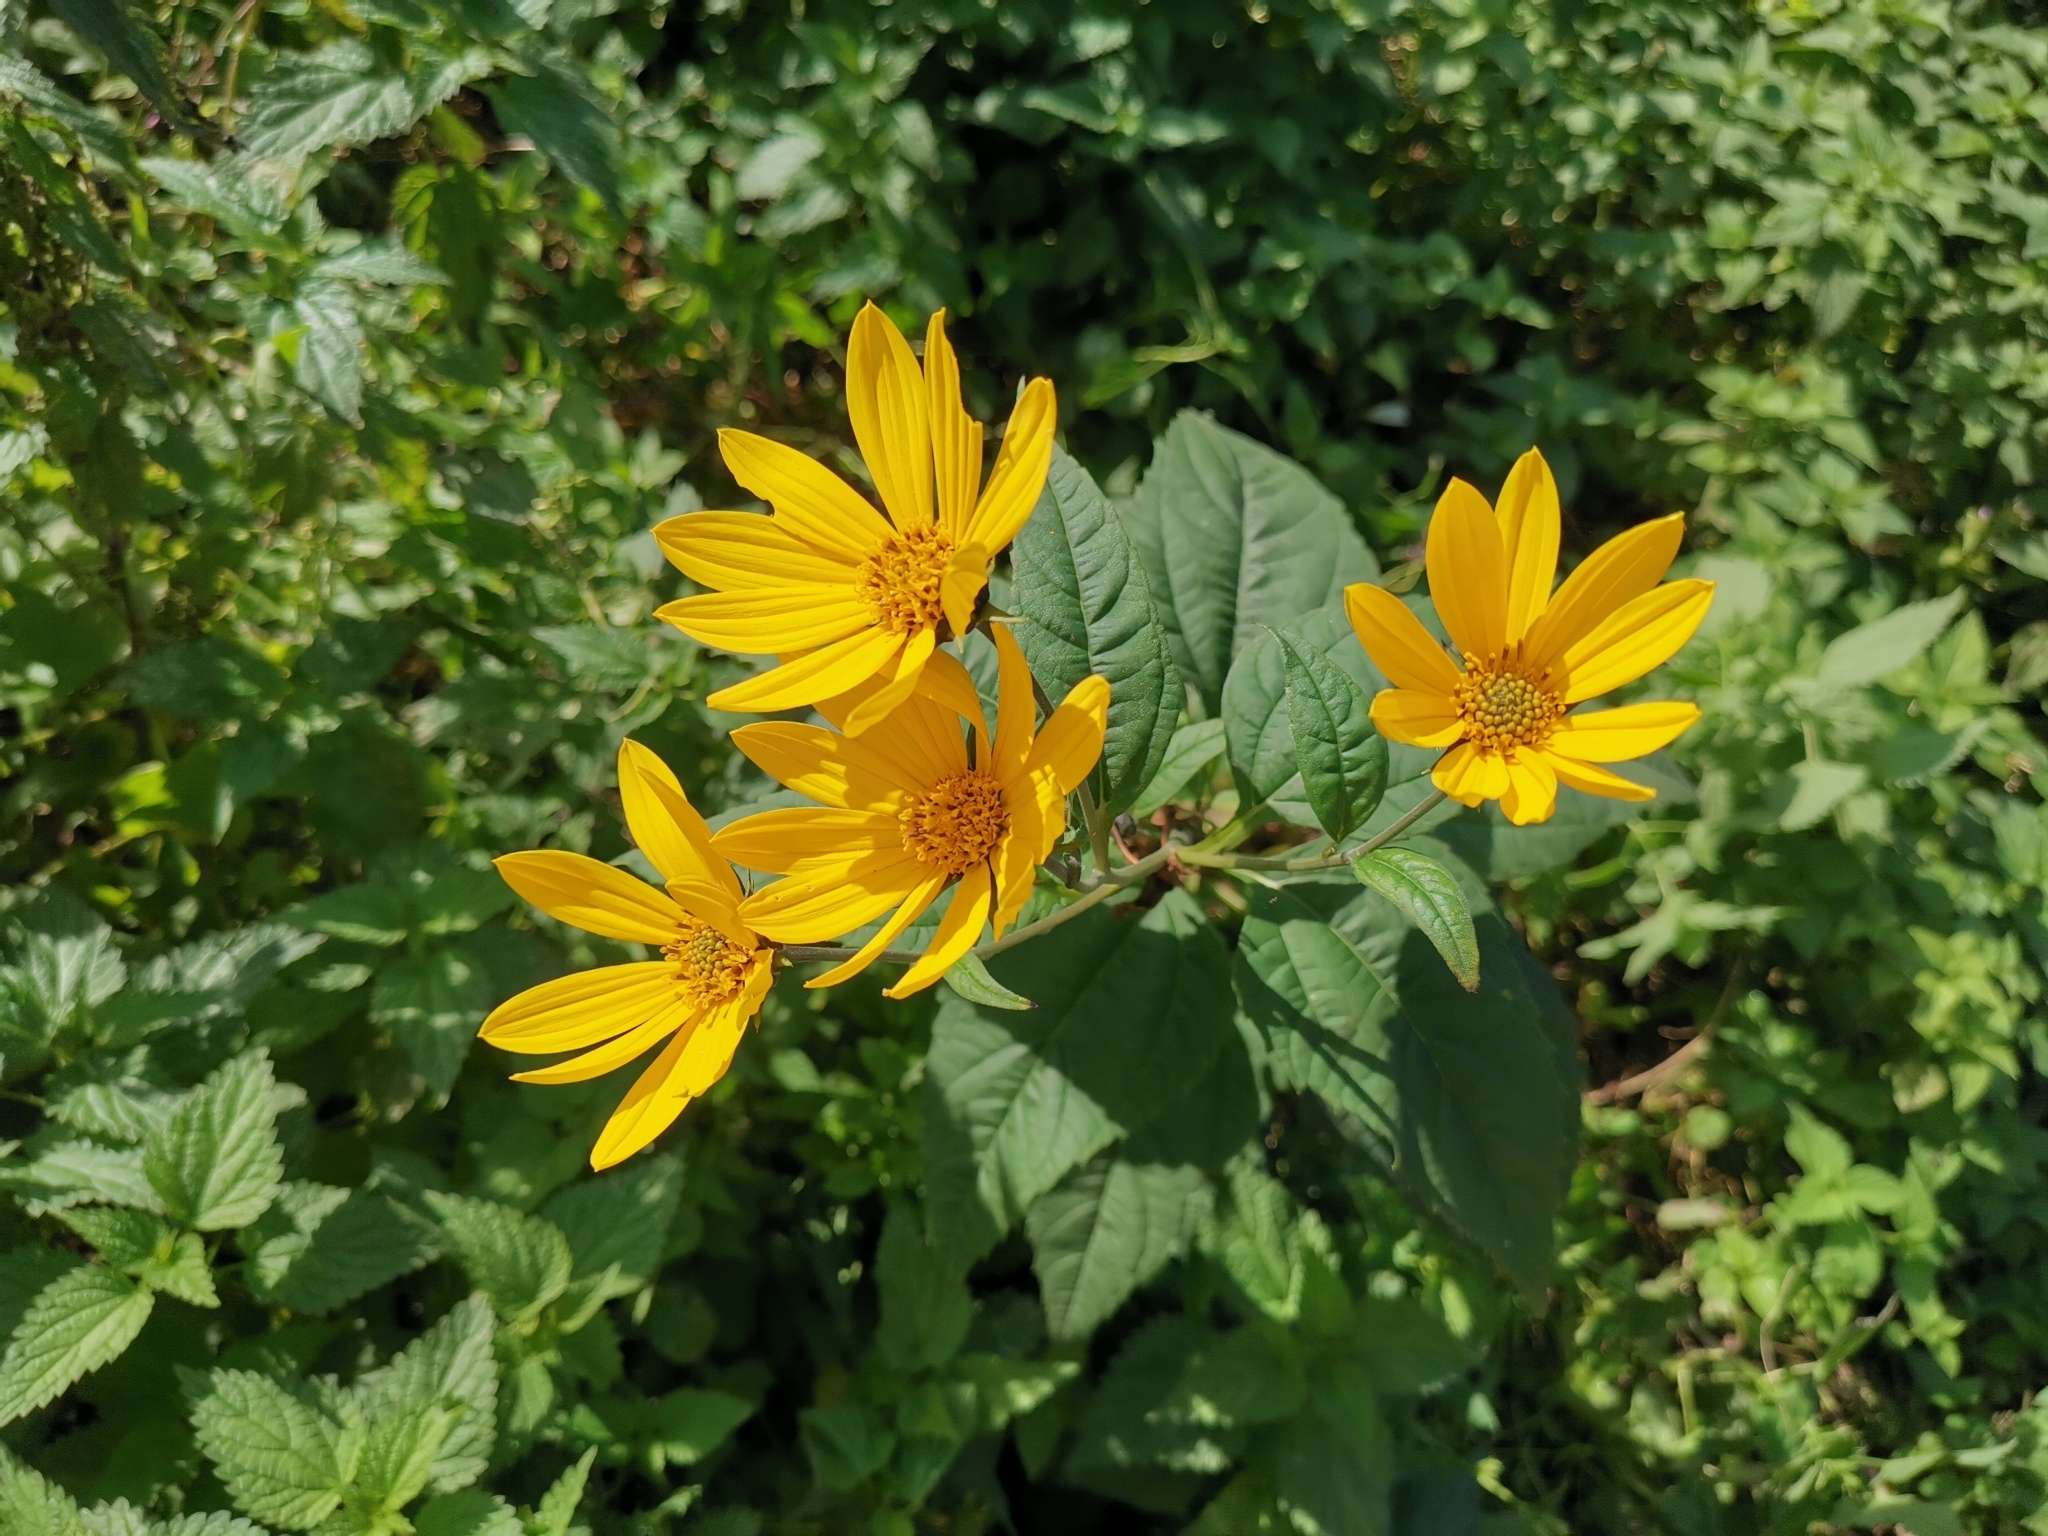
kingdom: Plantae
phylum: Tracheophyta
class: Magnoliopsida
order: Asterales
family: Asteraceae
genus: Helianthus
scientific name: Helianthus tuberosus
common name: Jerusalem artichoke
